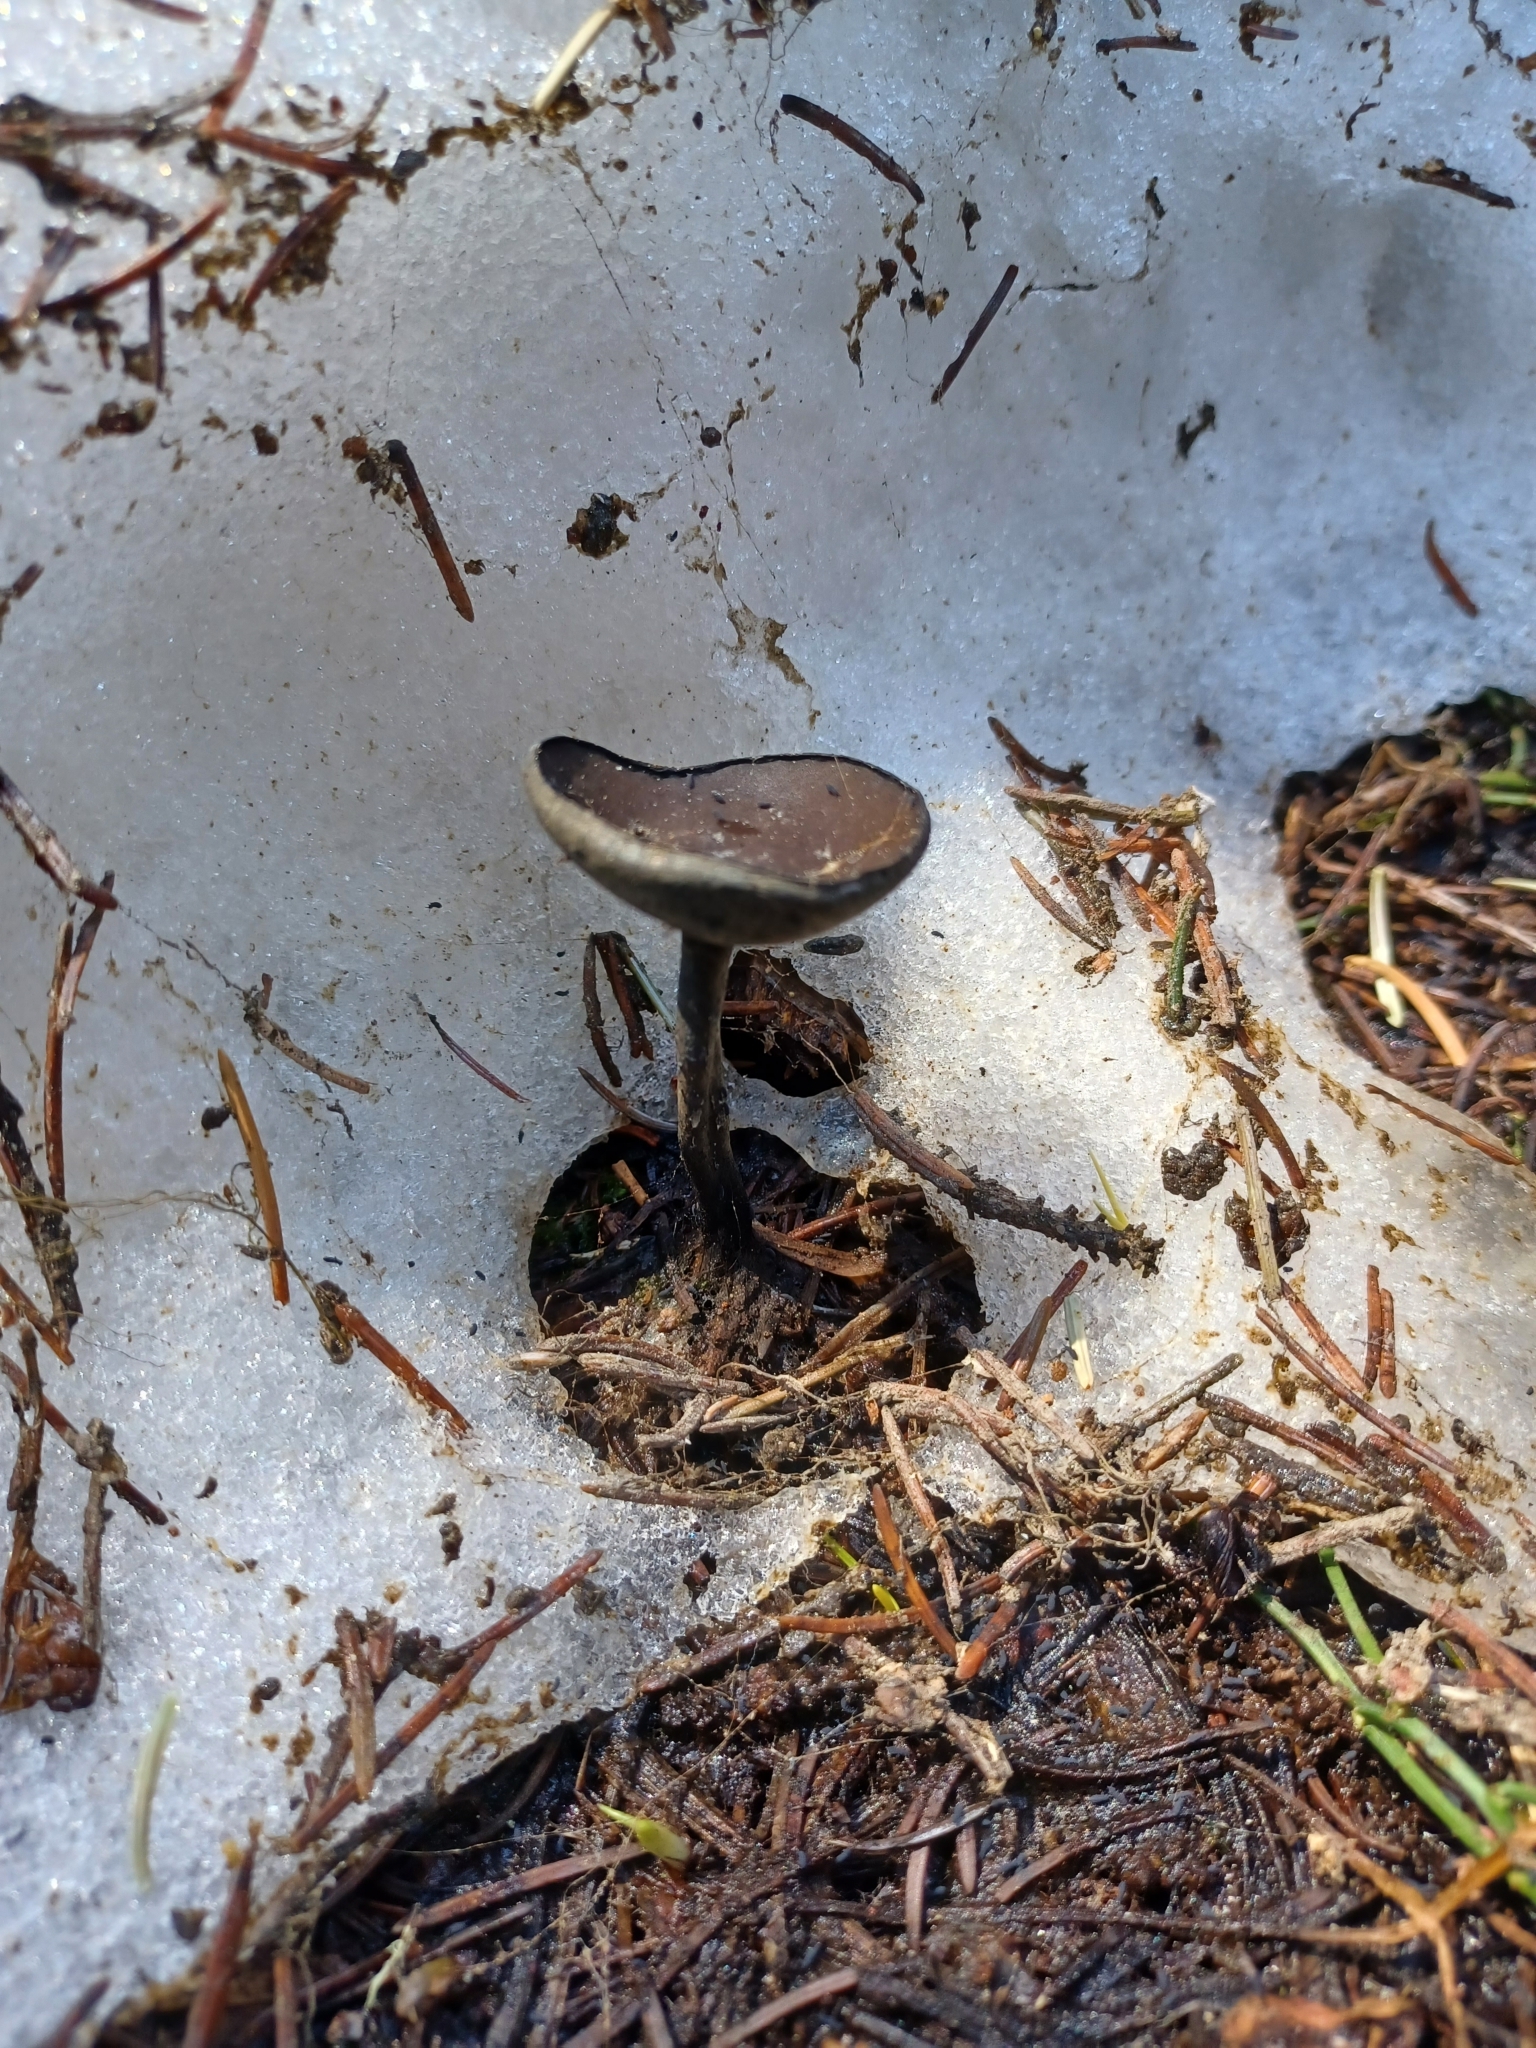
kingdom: Fungi
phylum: Ascomycota
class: Pezizomycetes
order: Pezizales
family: Sarcosomataceae
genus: Donadinia
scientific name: Donadinia nigrella
